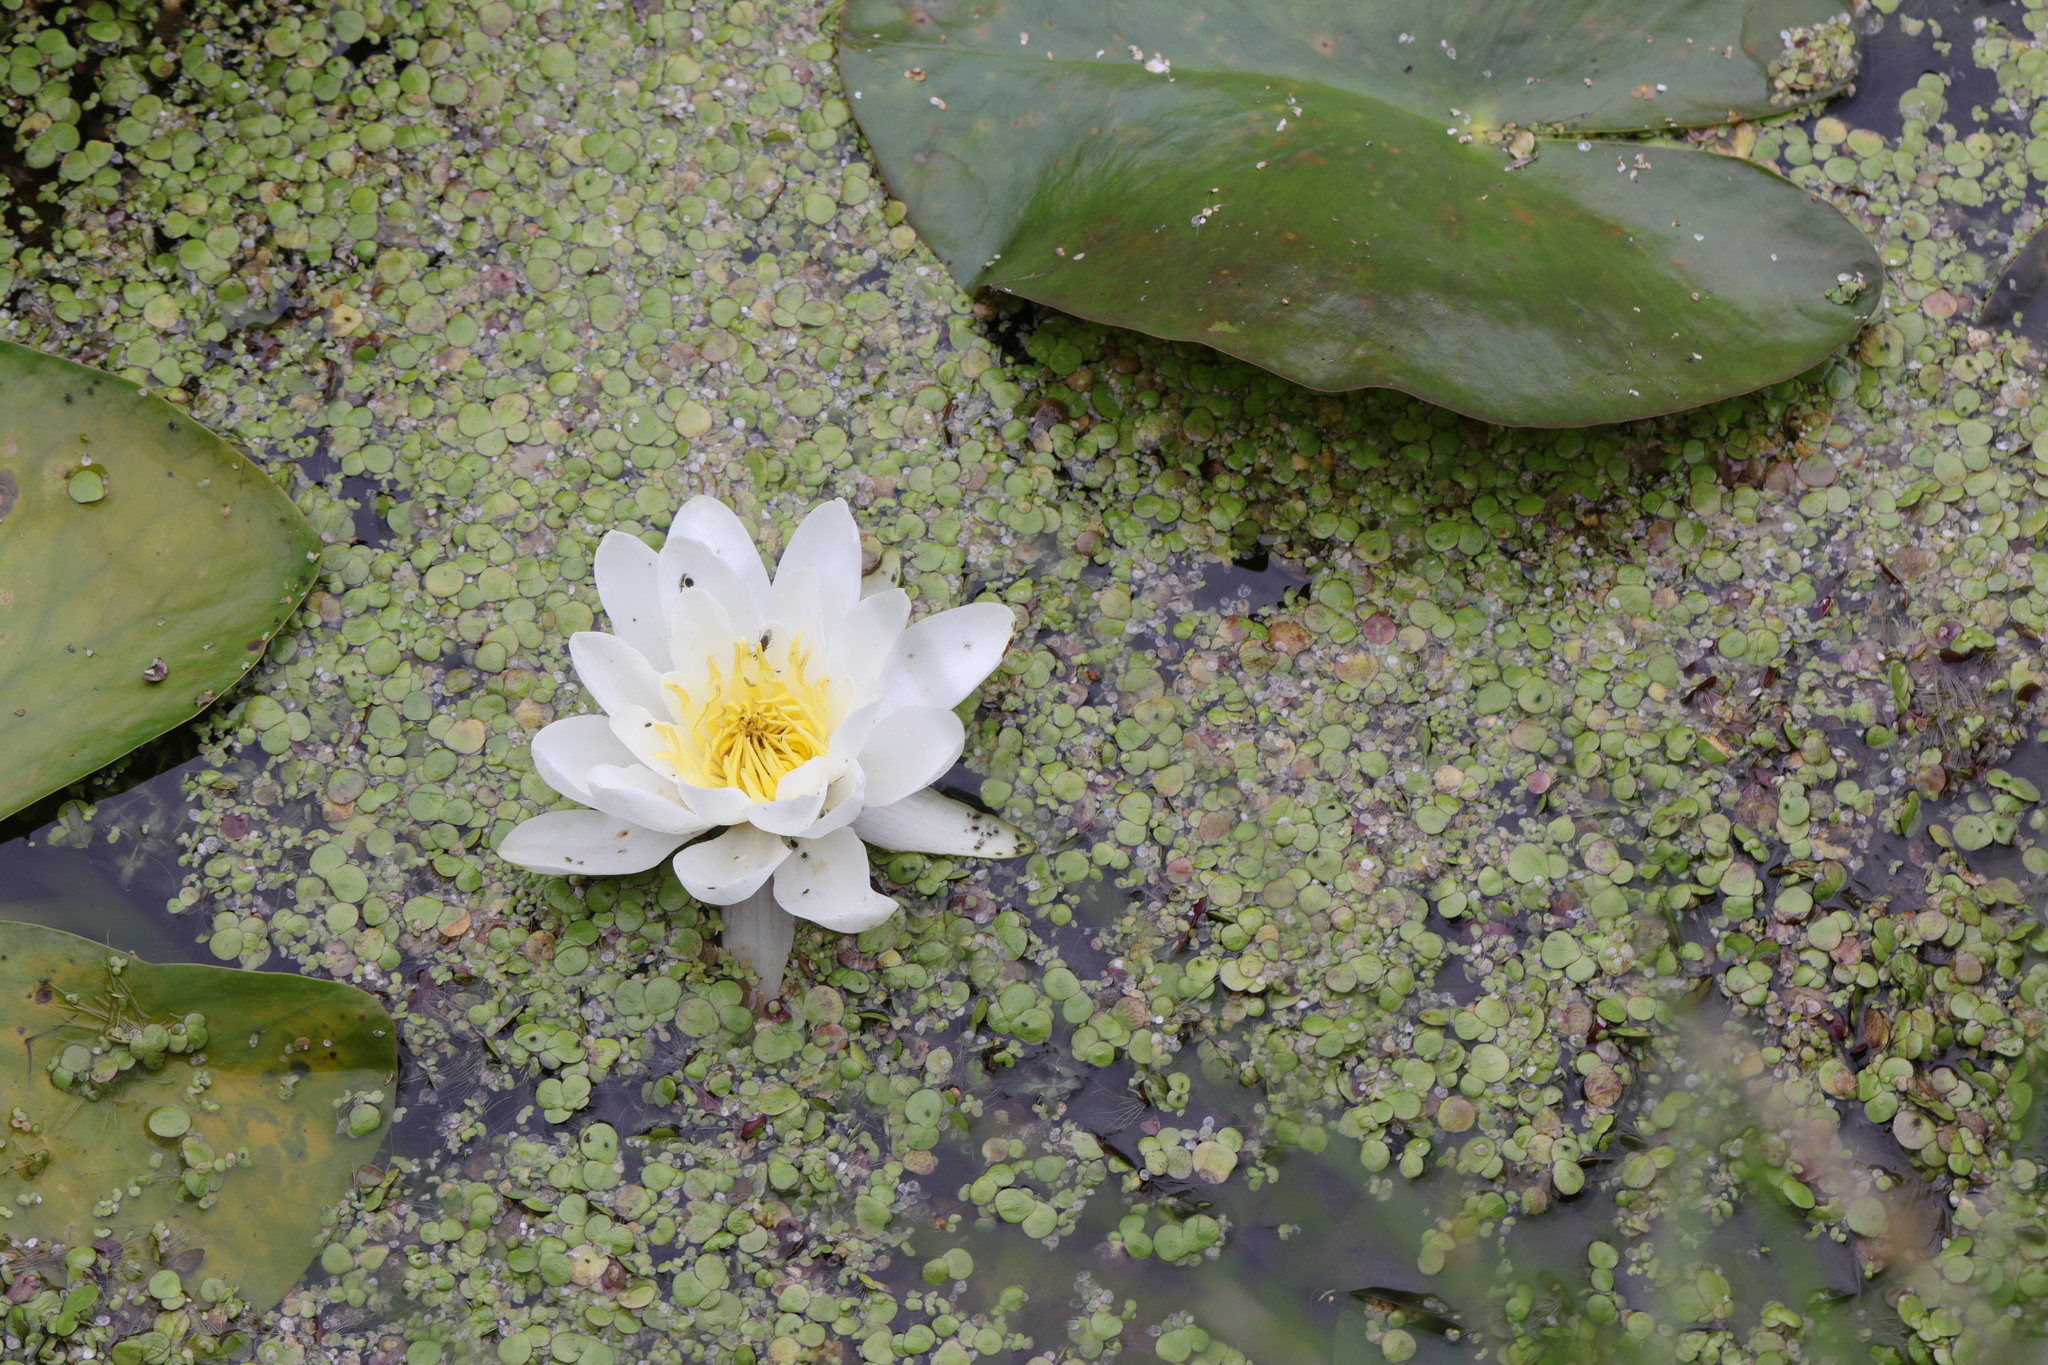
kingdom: Plantae
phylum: Tracheophyta
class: Magnoliopsida
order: Nymphaeales
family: Nymphaeaceae
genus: Nymphaea
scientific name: Nymphaea alba
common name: White water-lily
